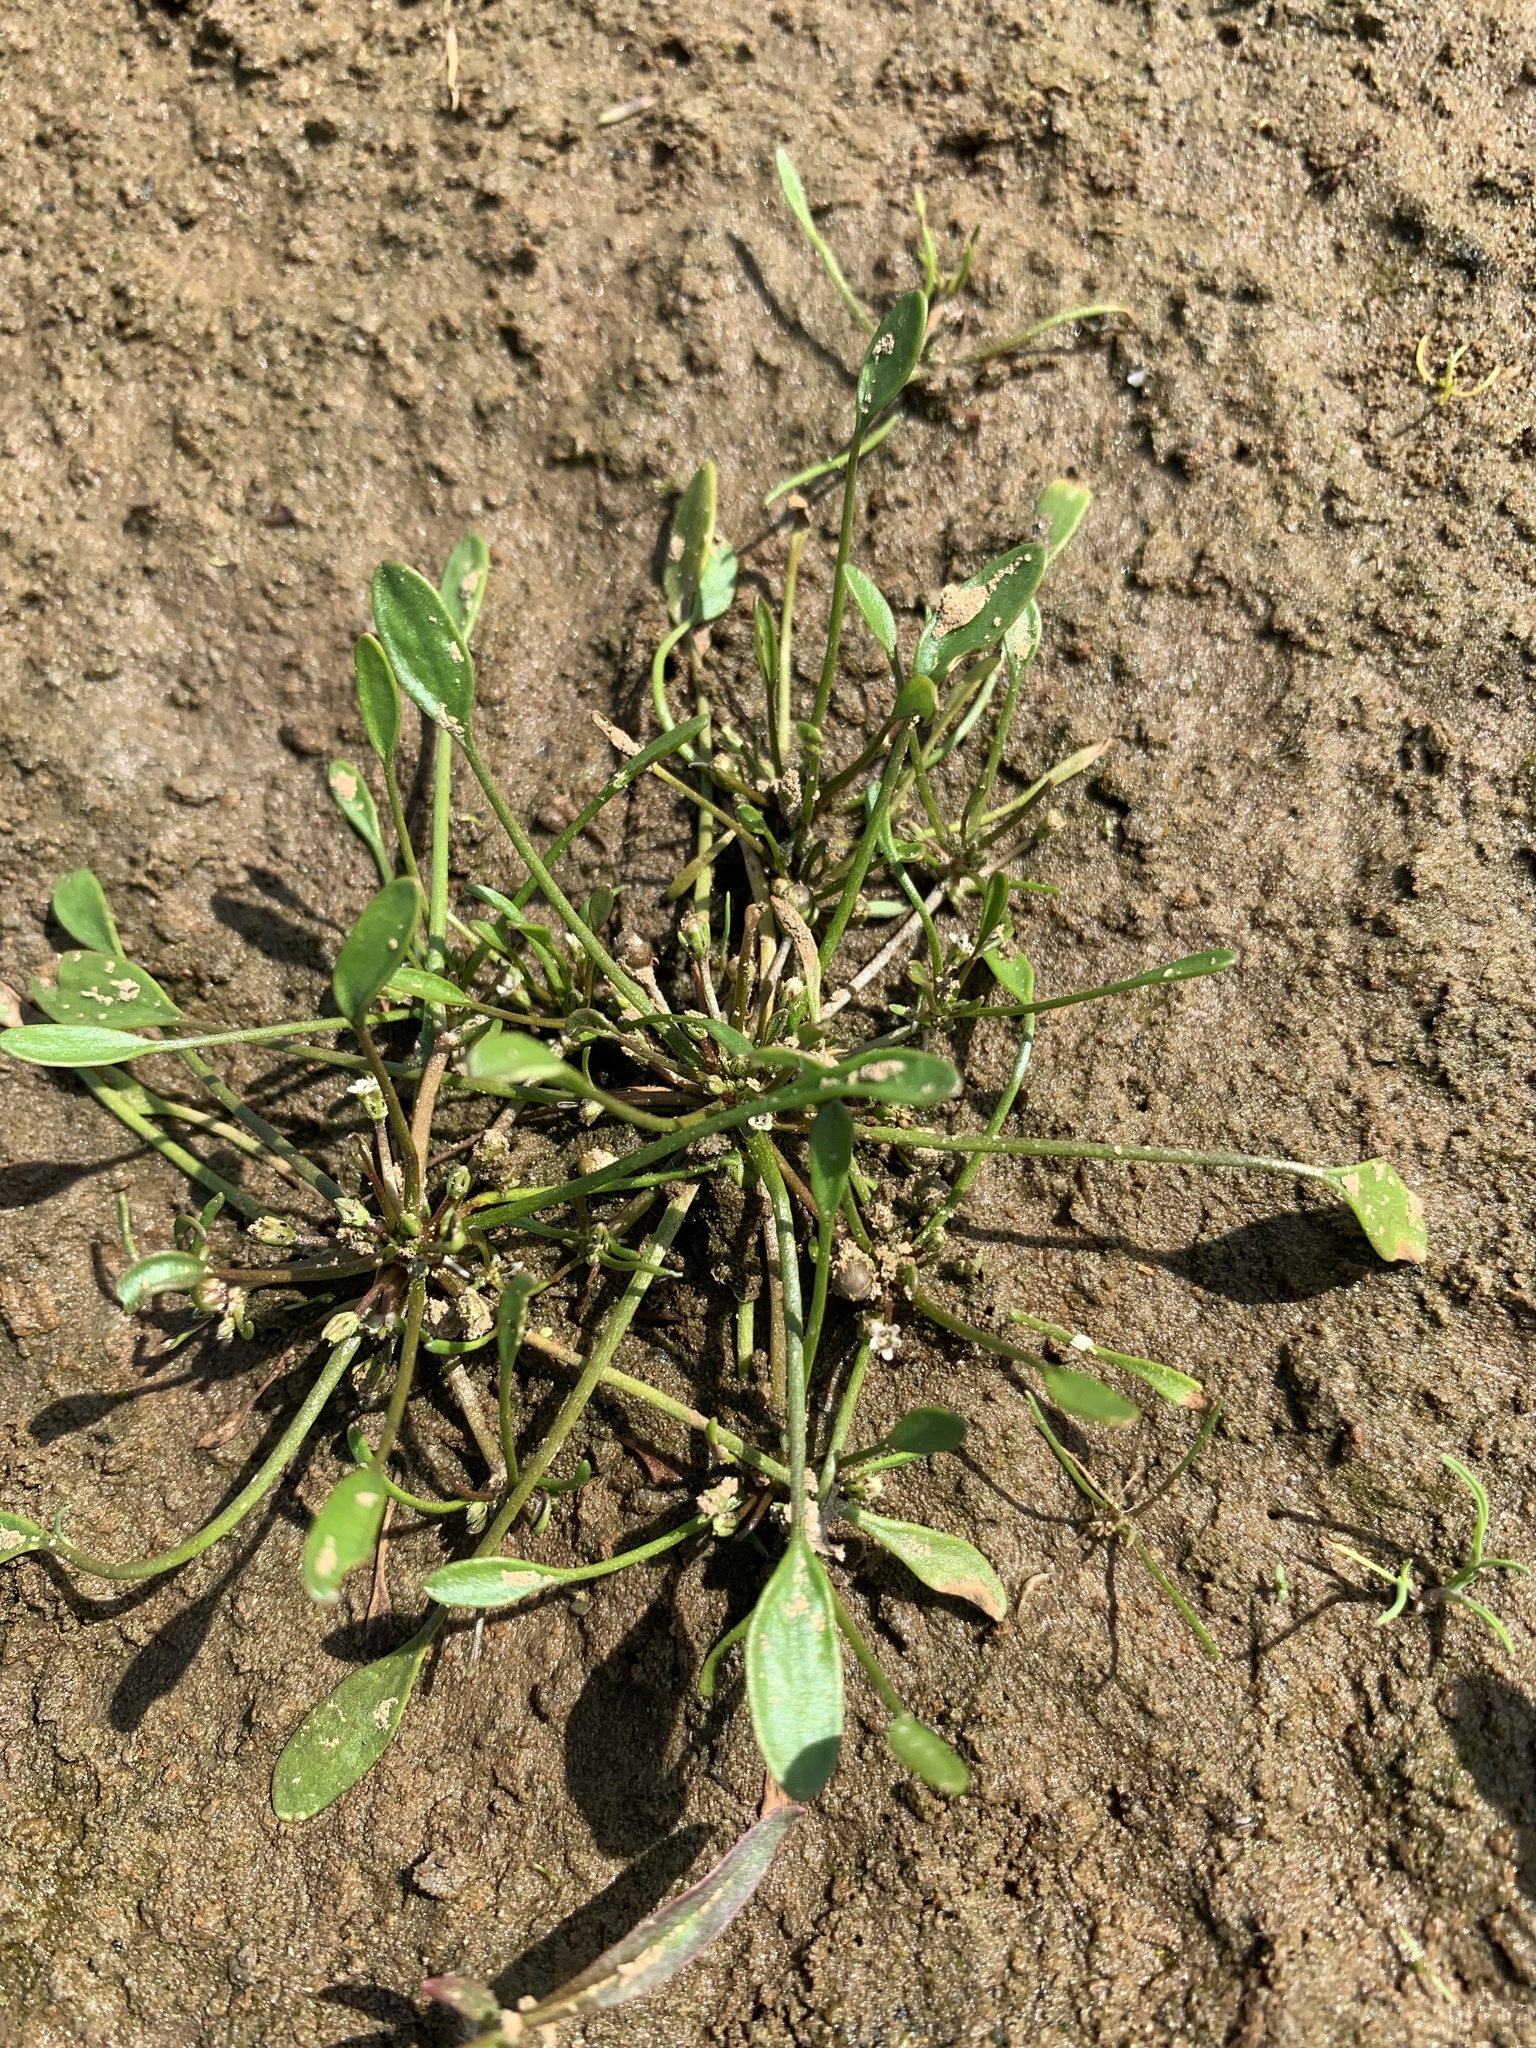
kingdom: Plantae
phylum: Tracheophyta
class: Magnoliopsida
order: Lamiales
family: Scrophulariaceae
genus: Limosella
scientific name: Limosella aquatica
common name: Mudwort
